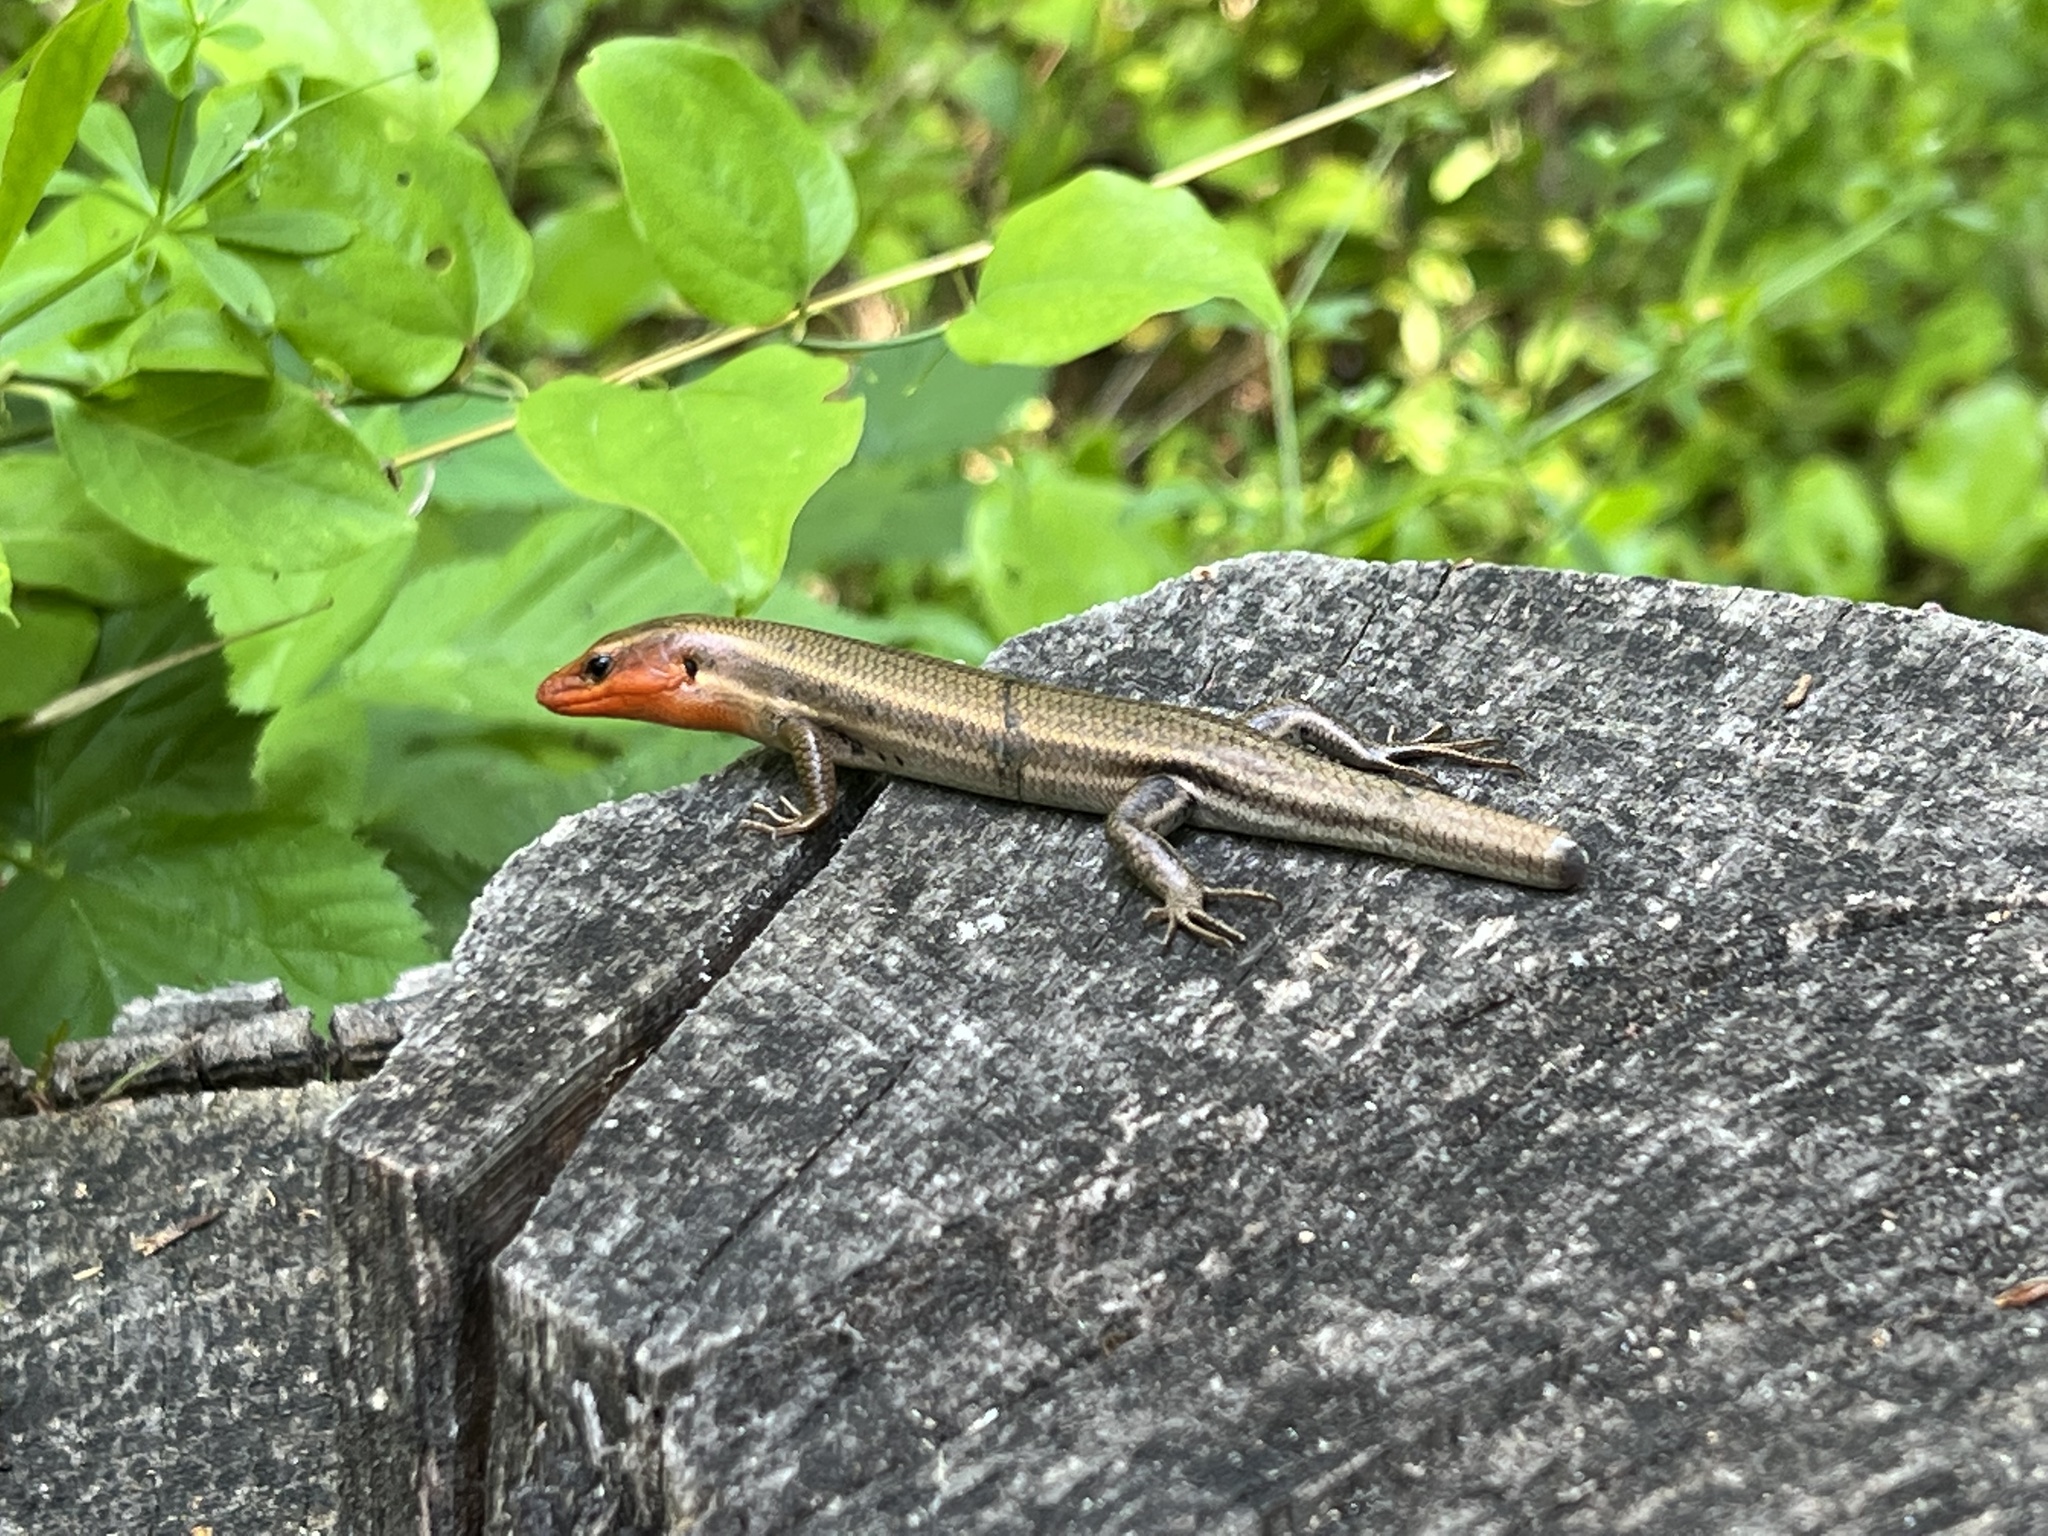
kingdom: Animalia
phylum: Chordata
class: Squamata
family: Scincidae
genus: Plestiodon
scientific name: Plestiodon fasciatus
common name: Five-lined skink
